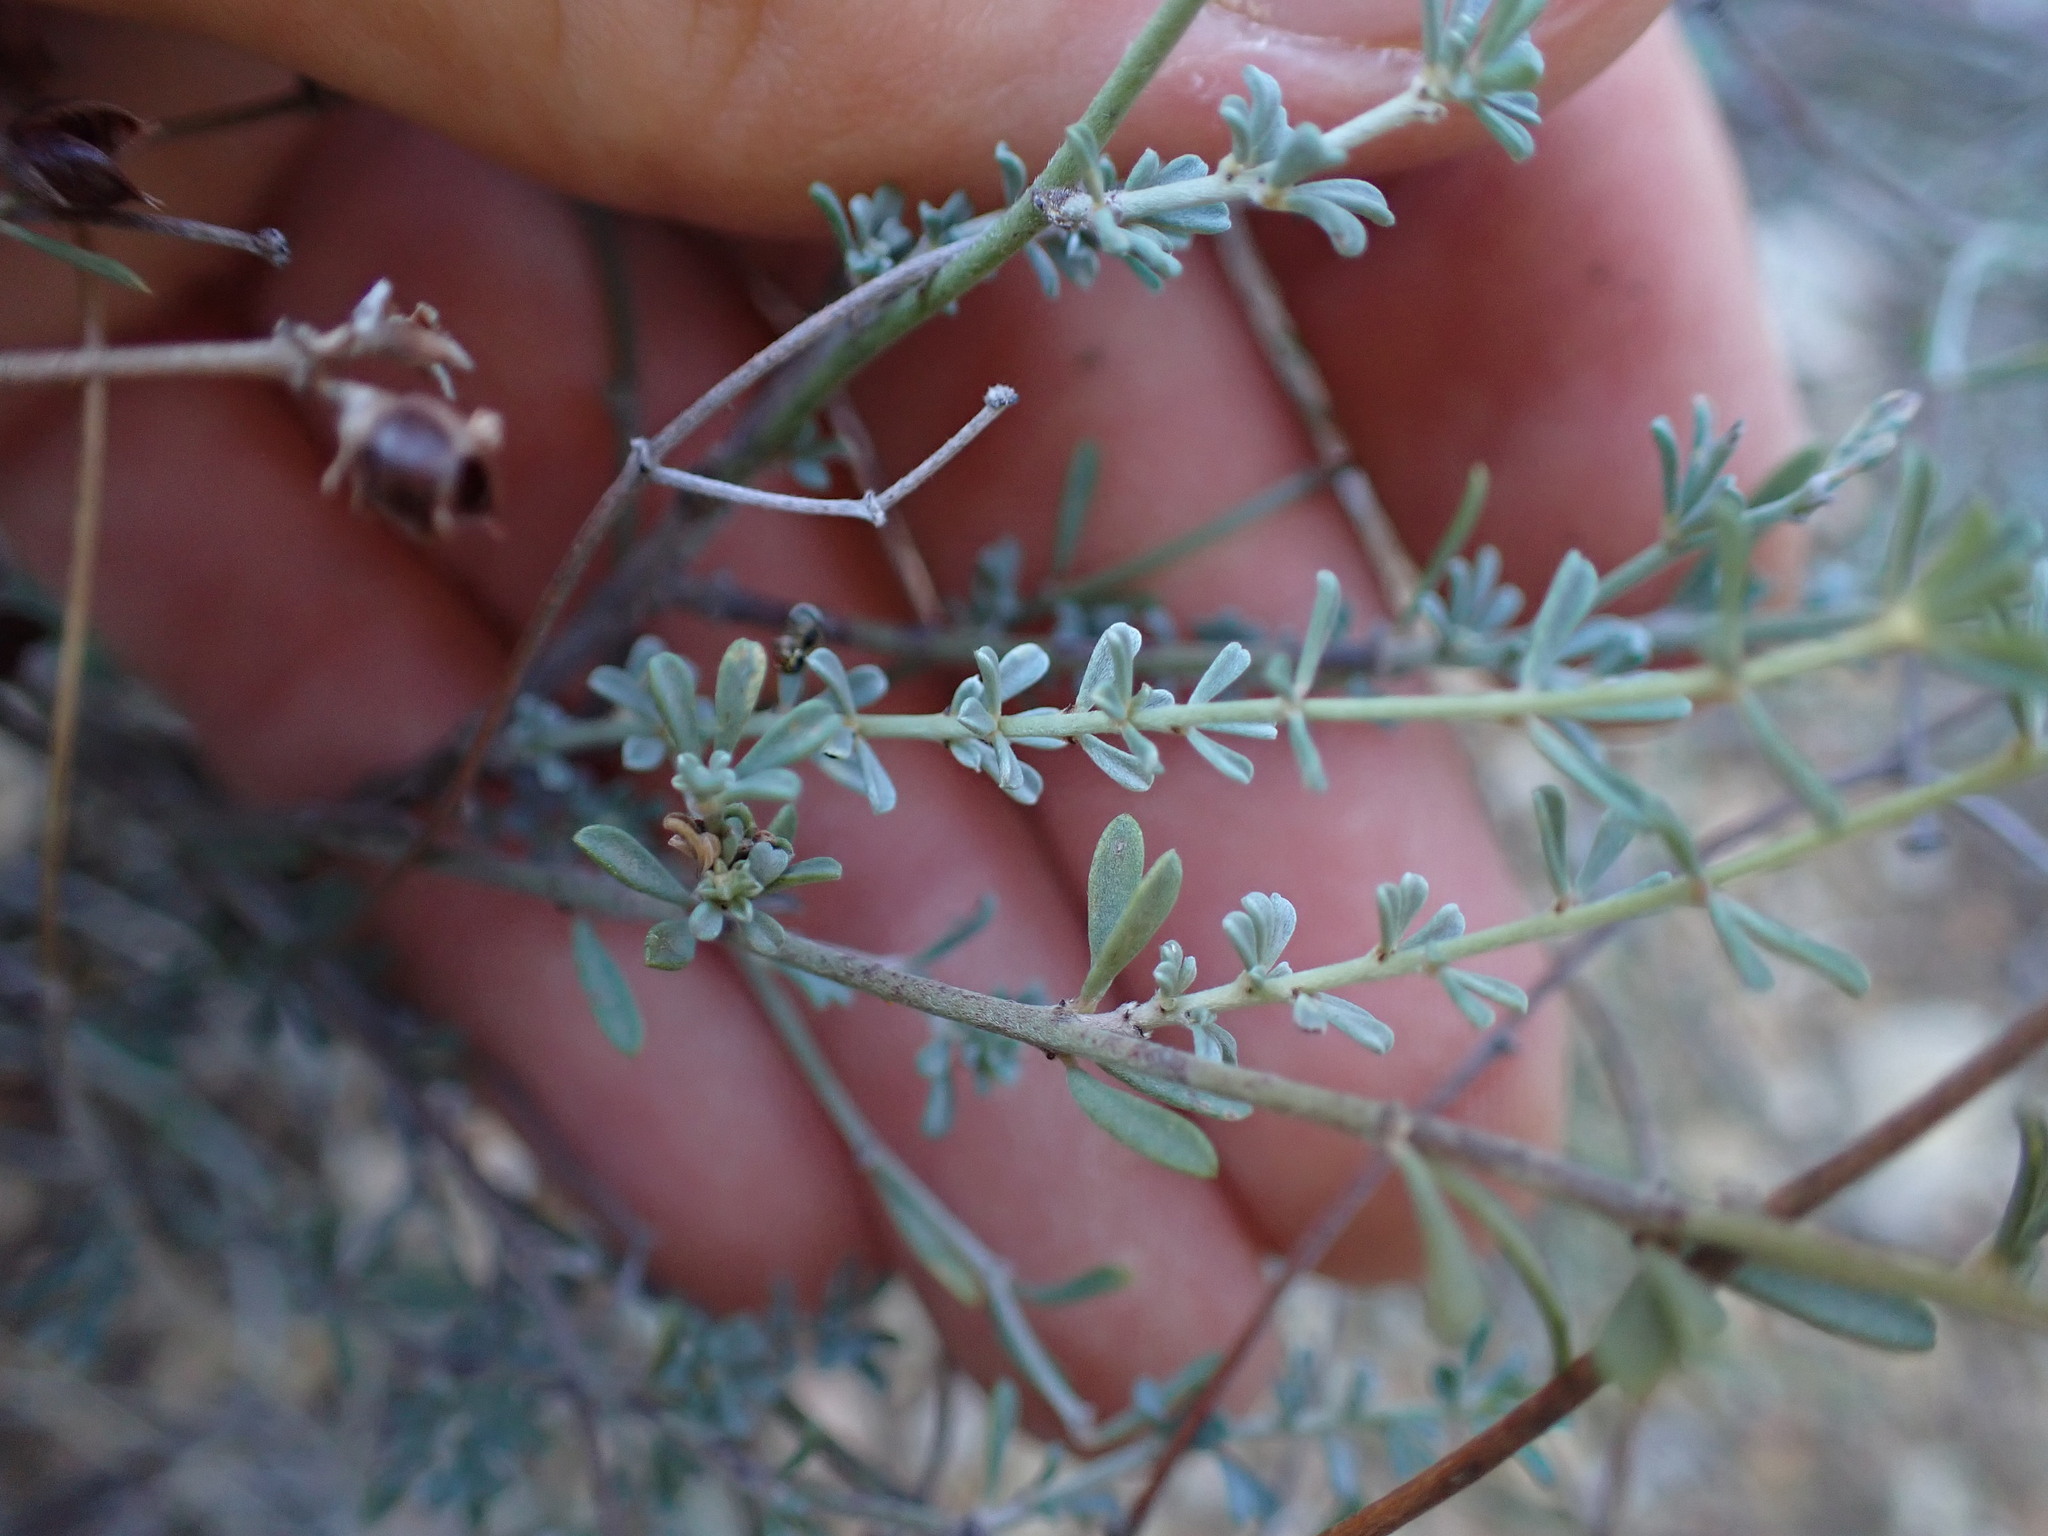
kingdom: Plantae
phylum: Tracheophyta
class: Magnoliopsida
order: Fabales
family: Fabaceae
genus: Lotus
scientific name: Lotus dorycnium
